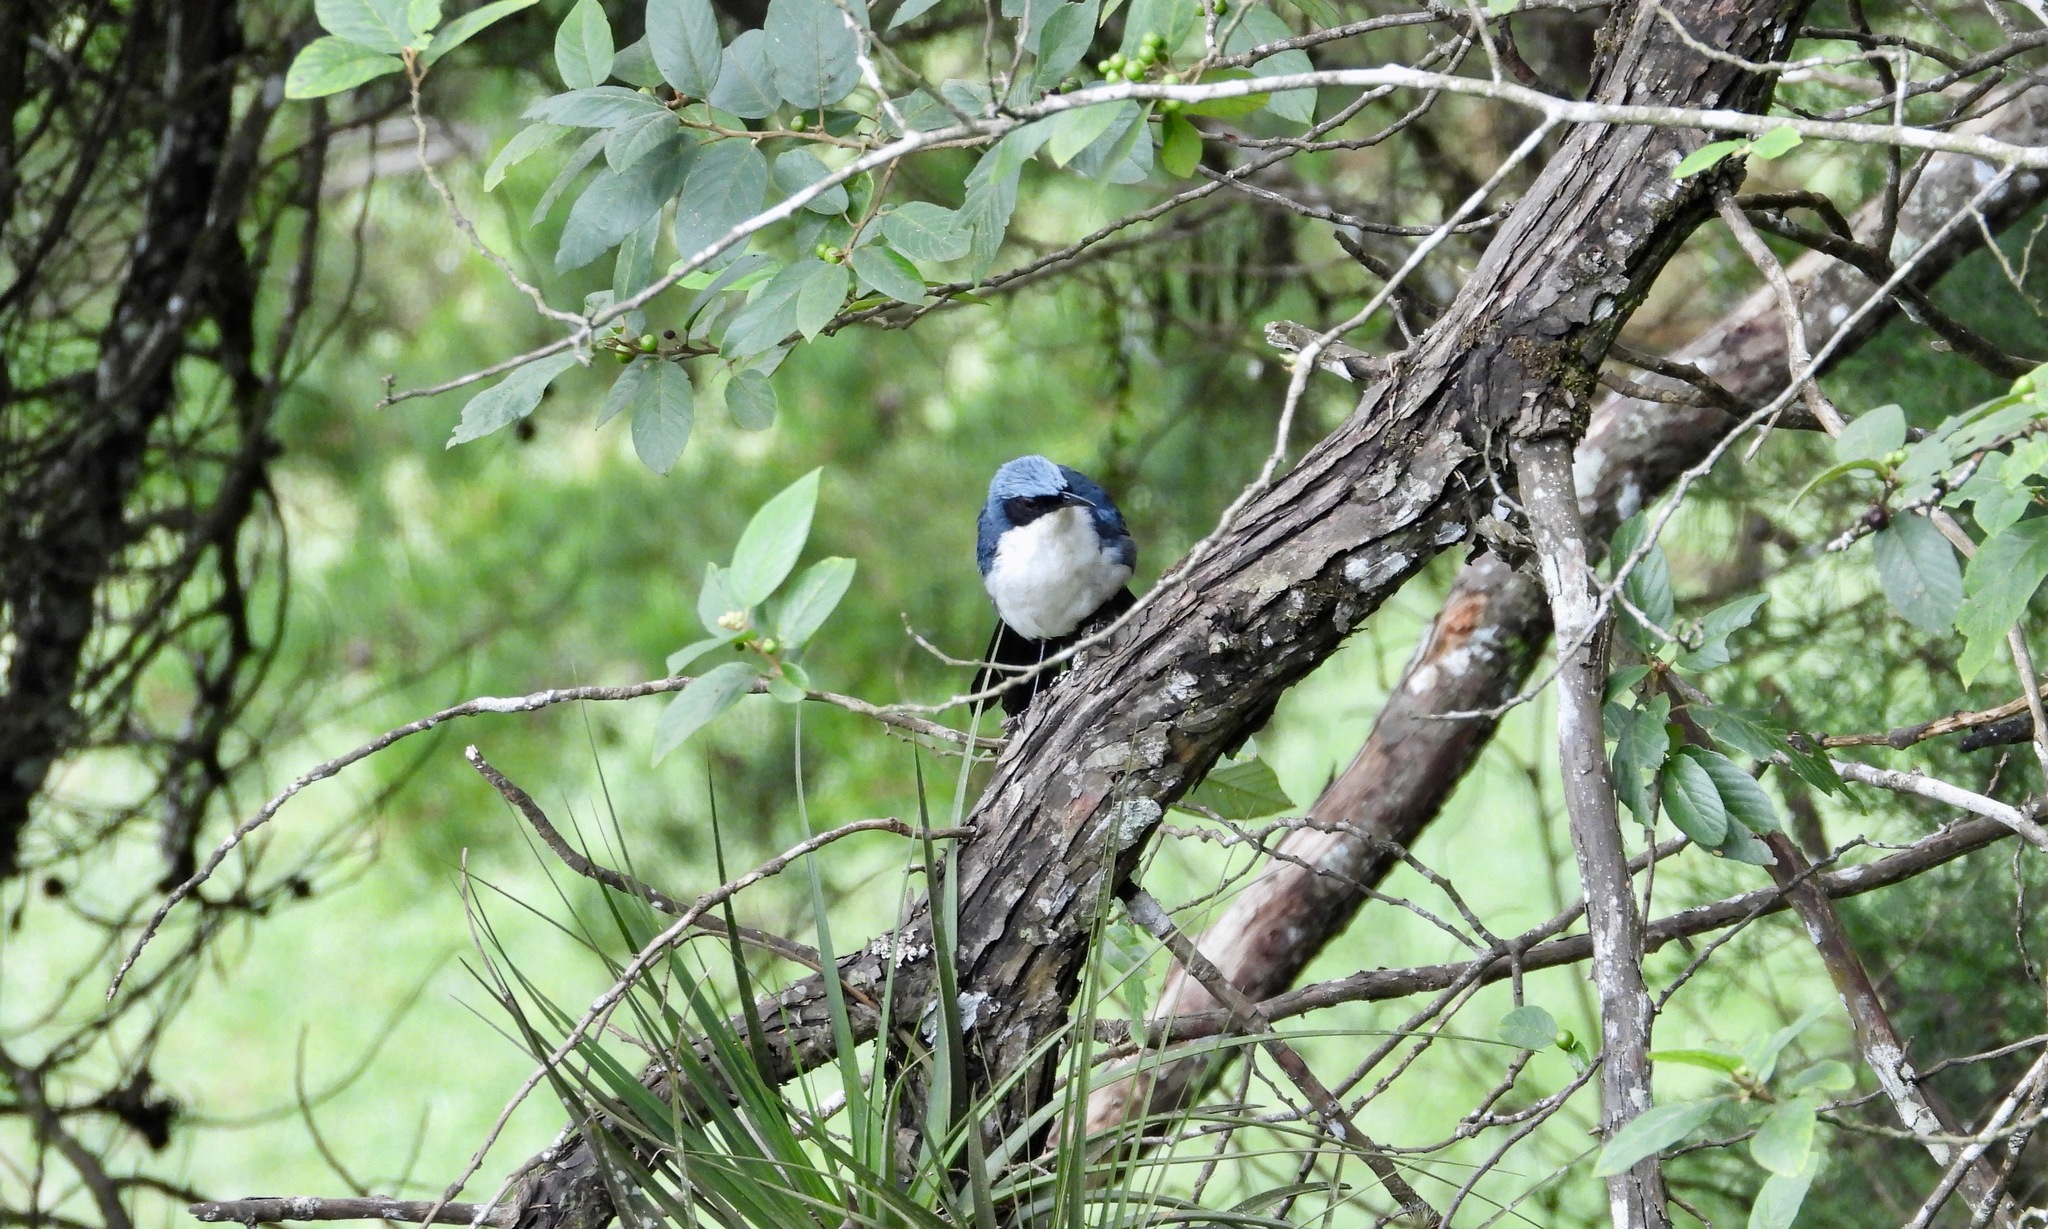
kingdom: Animalia
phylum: Chordata
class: Aves
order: Passeriformes
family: Mimidae
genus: Melanotis
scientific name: Melanotis hypoleucus
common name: Blue-and-white mockingbird
